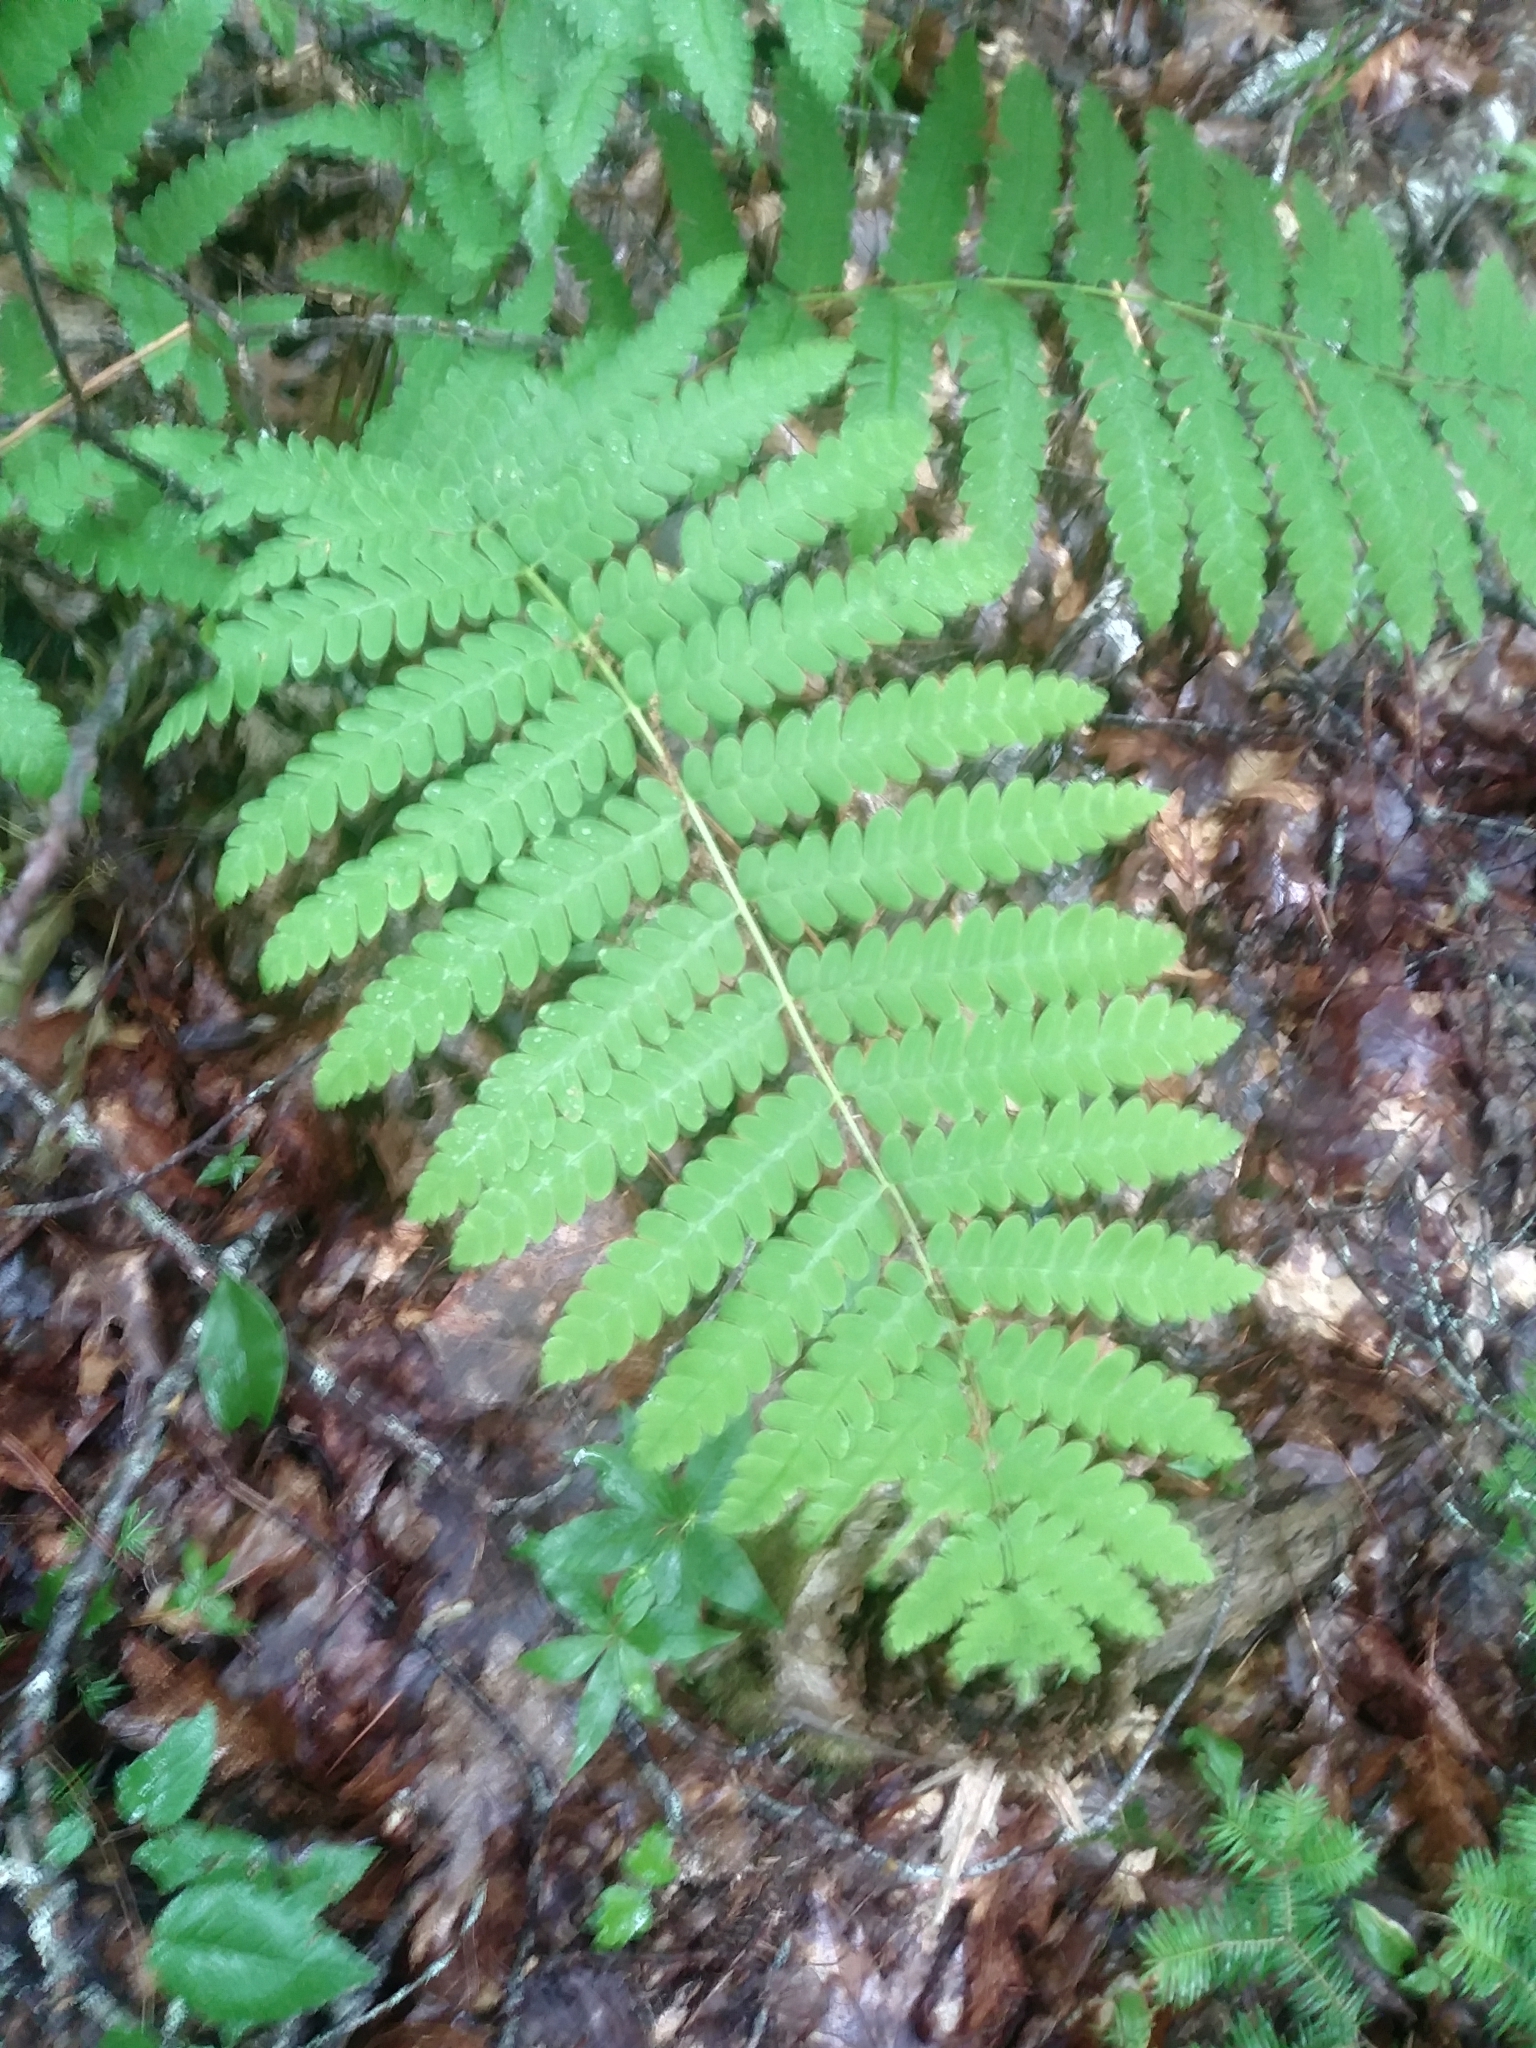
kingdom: Plantae
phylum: Tracheophyta
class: Polypodiopsida
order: Osmundales
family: Osmundaceae
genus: Claytosmunda
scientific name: Claytosmunda claytoniana
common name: Clayton's fern
